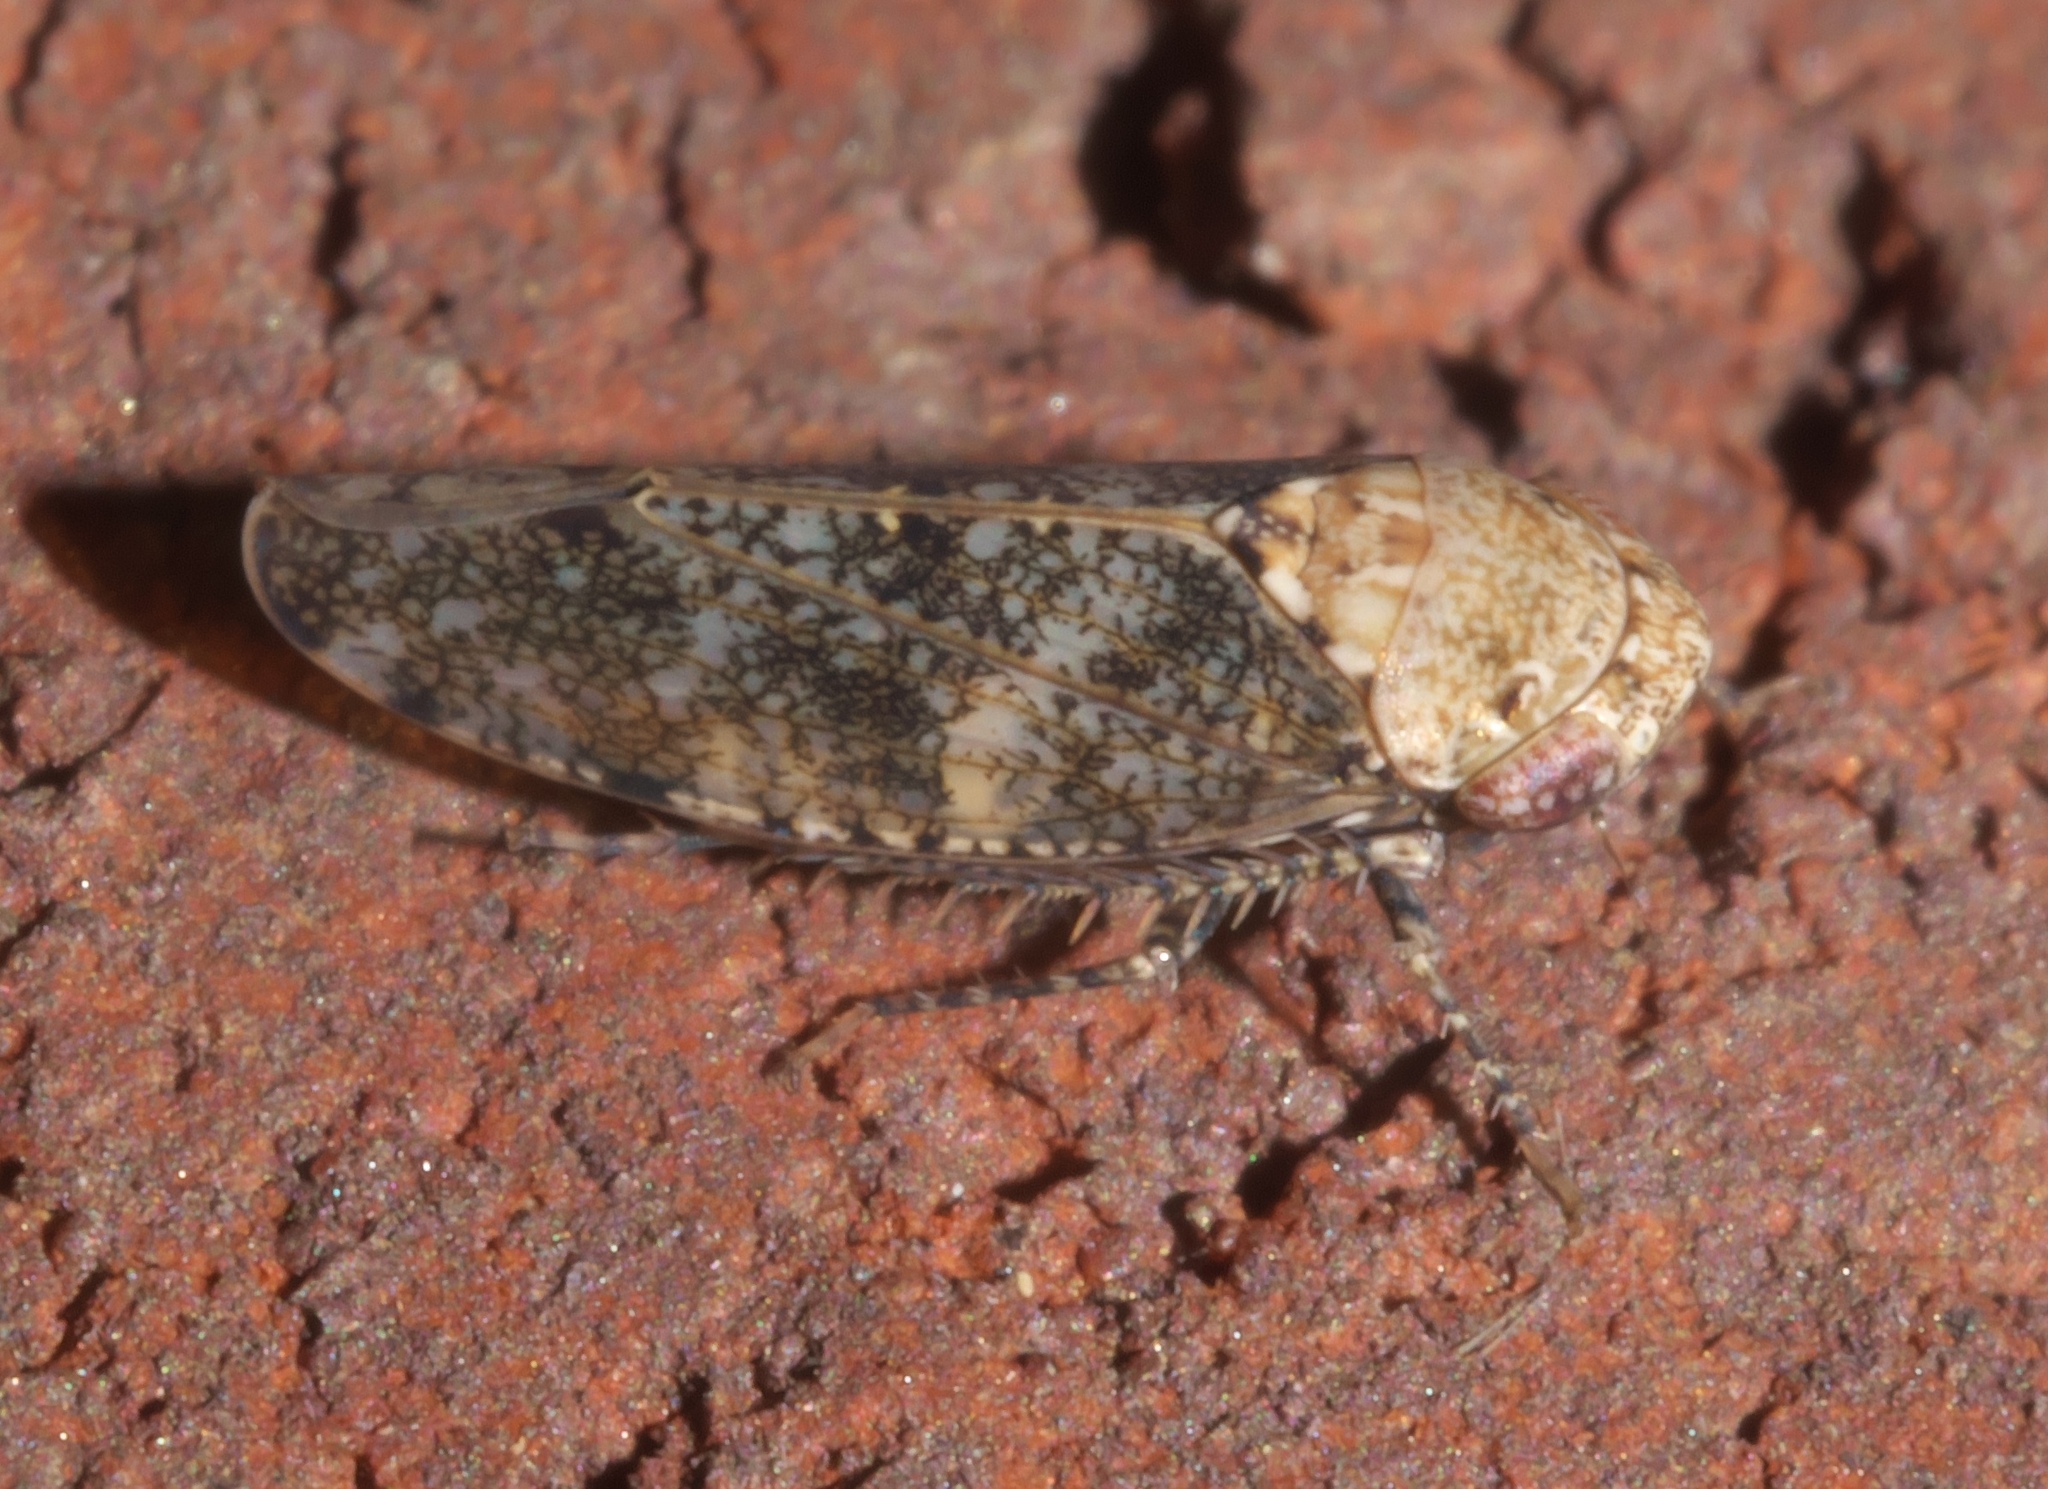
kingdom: Animalia
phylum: Arthropoda
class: Insecta
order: Hemiptera
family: Cicadellidae
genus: Paraphlepsius
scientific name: Paraphlepsius collitus
